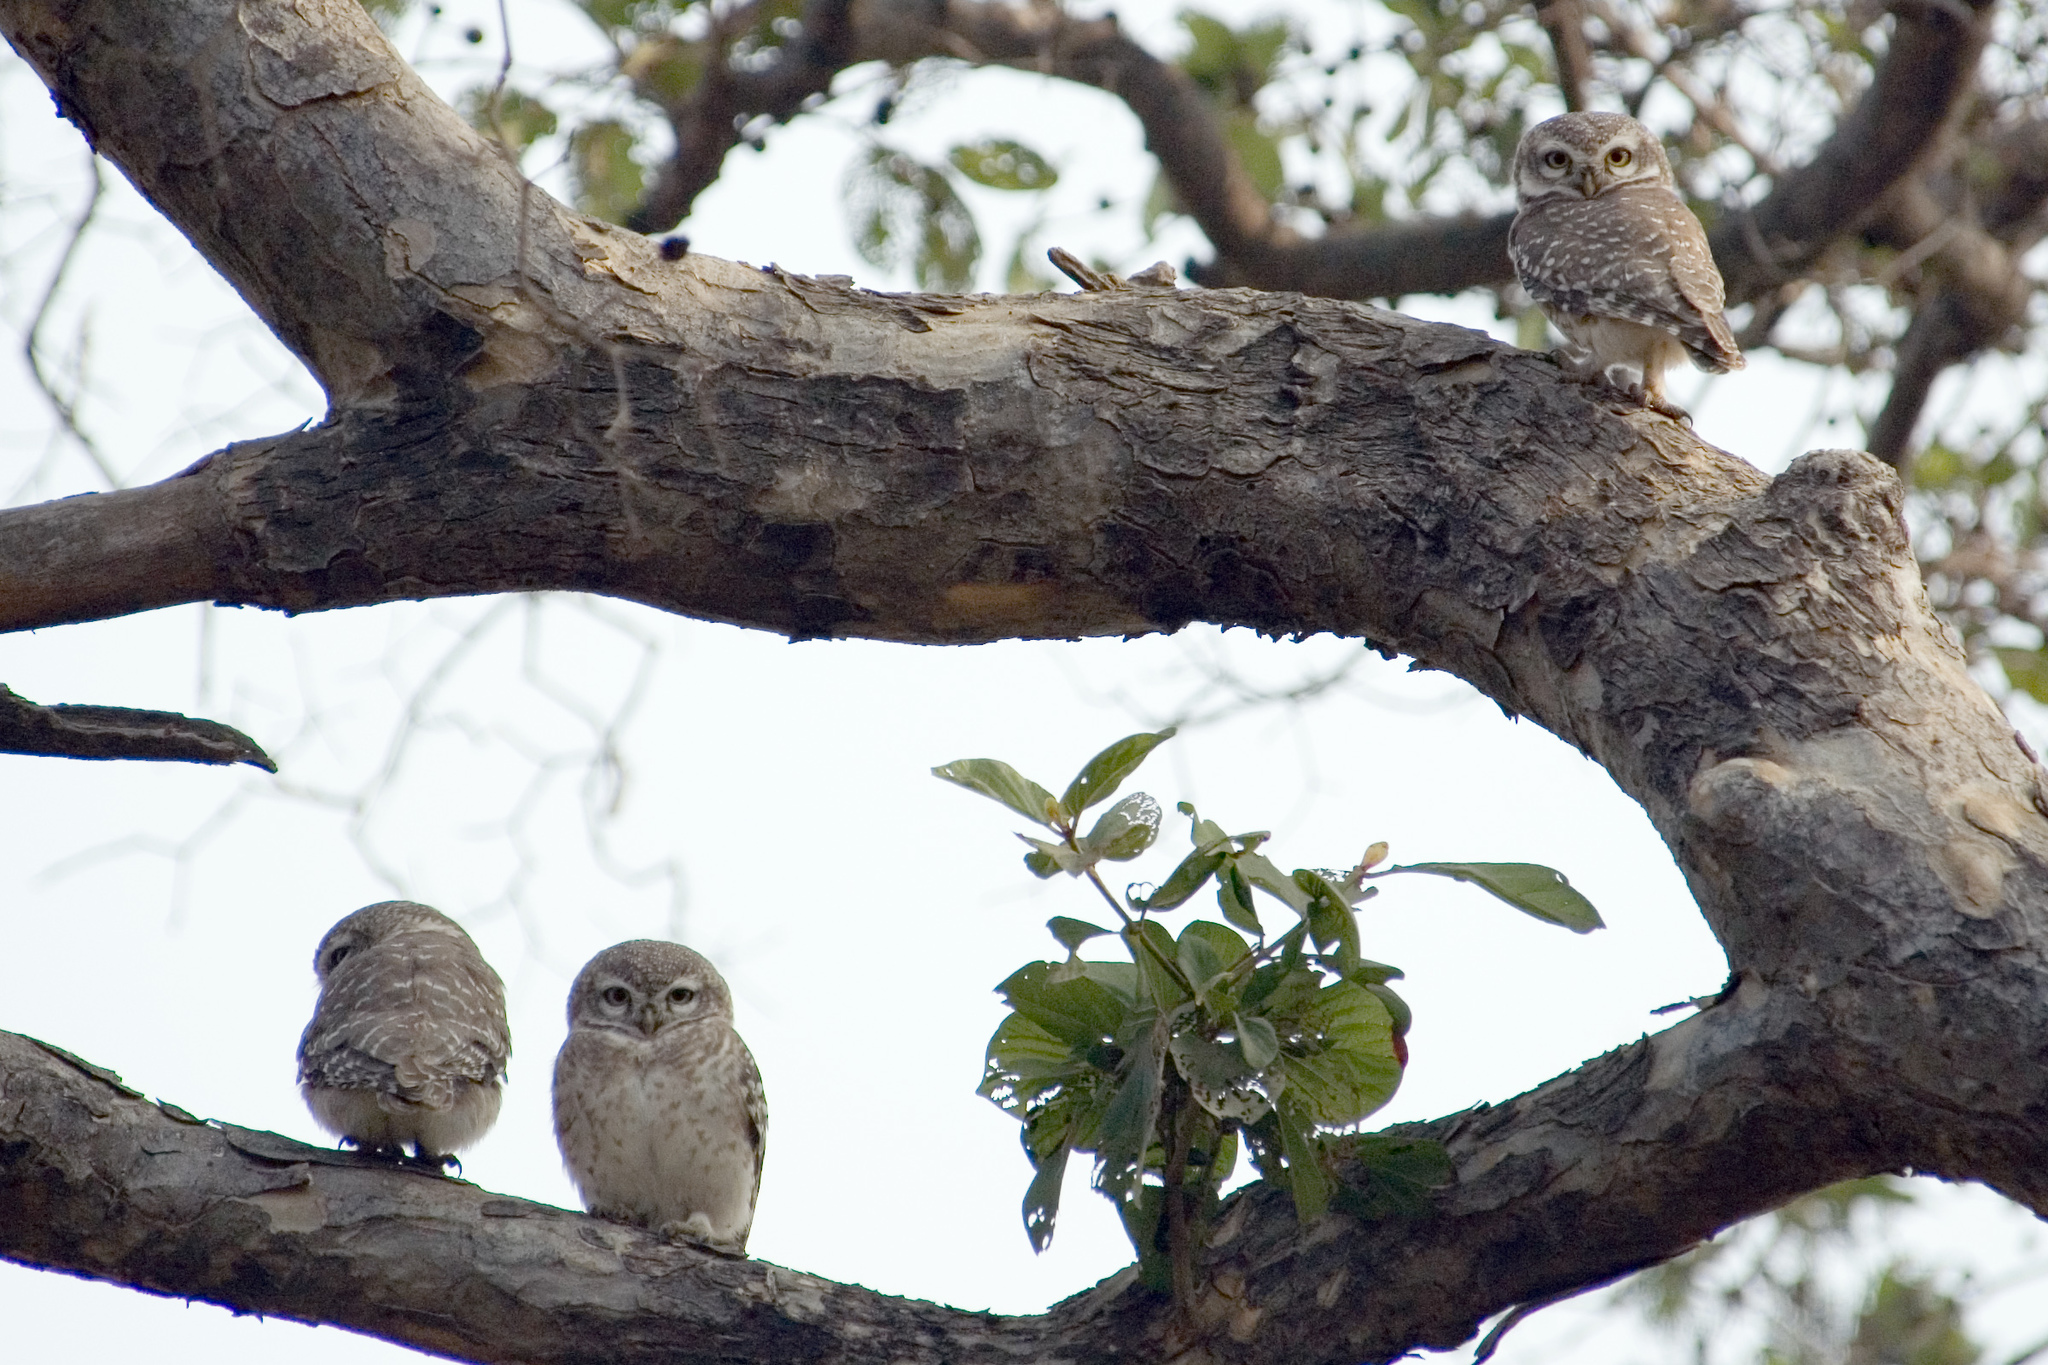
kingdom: Animalia
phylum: Chordata
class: Aves
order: Strigiformes
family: Strigidae
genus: Athene
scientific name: Athene brama
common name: Spotted owlet
